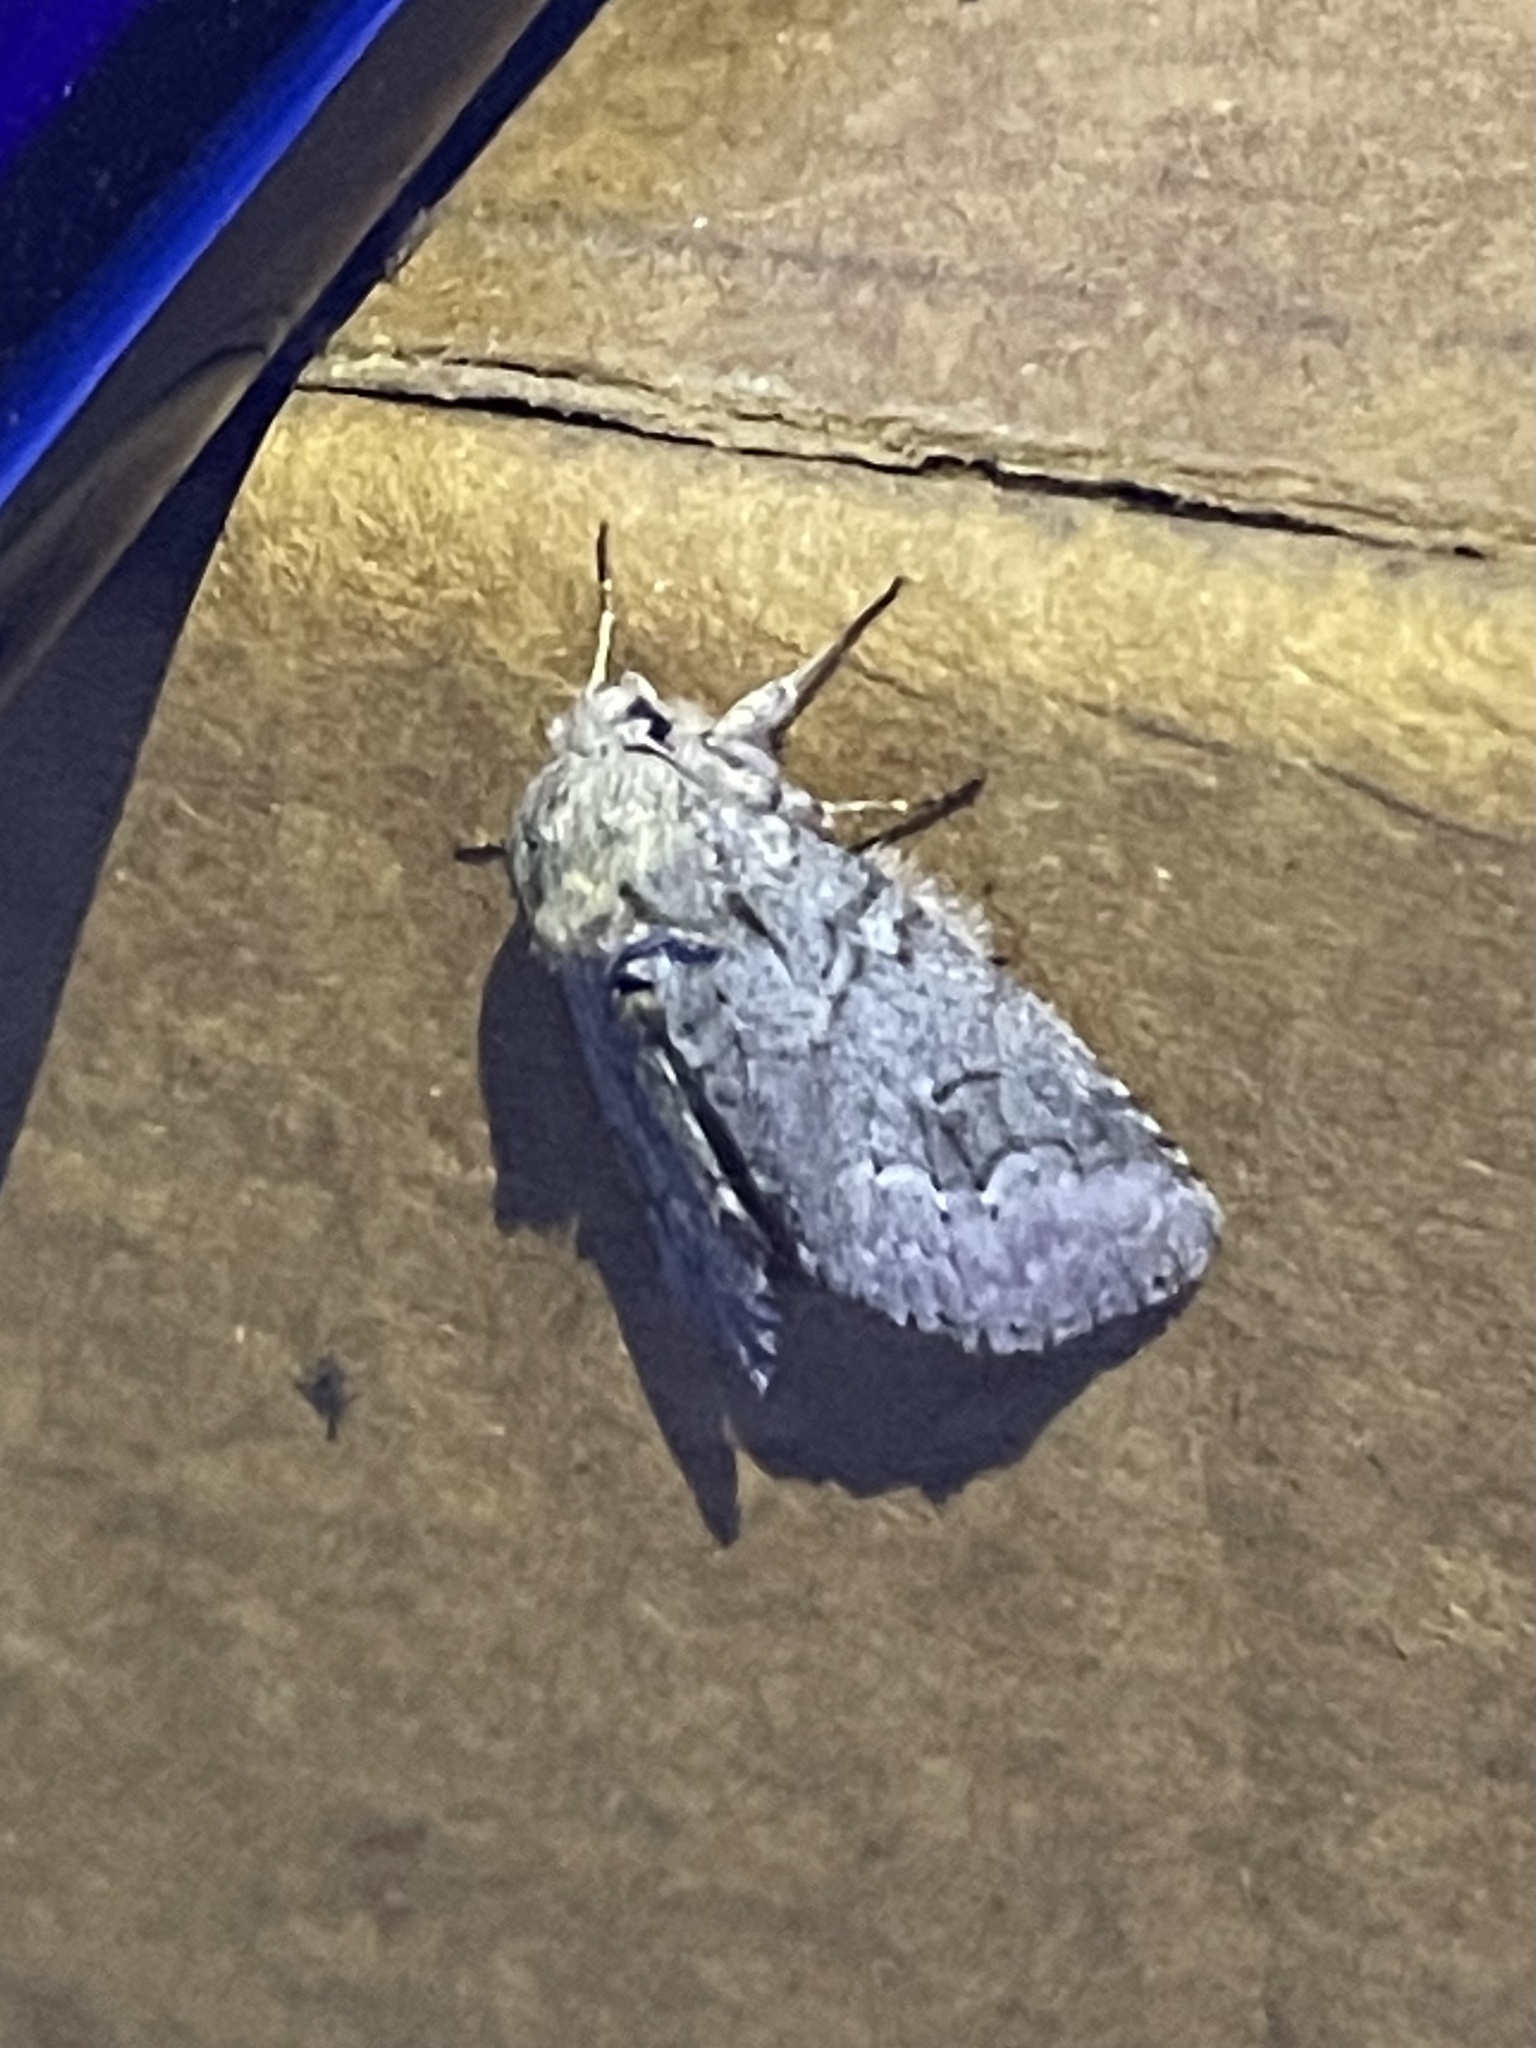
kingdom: Animalia
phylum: Arthropoda
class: Insecta
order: Lepidoptera
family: Notodontidae
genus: Lochmaeus
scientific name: Lochmaeus bilineata
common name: Double-lined prominent
